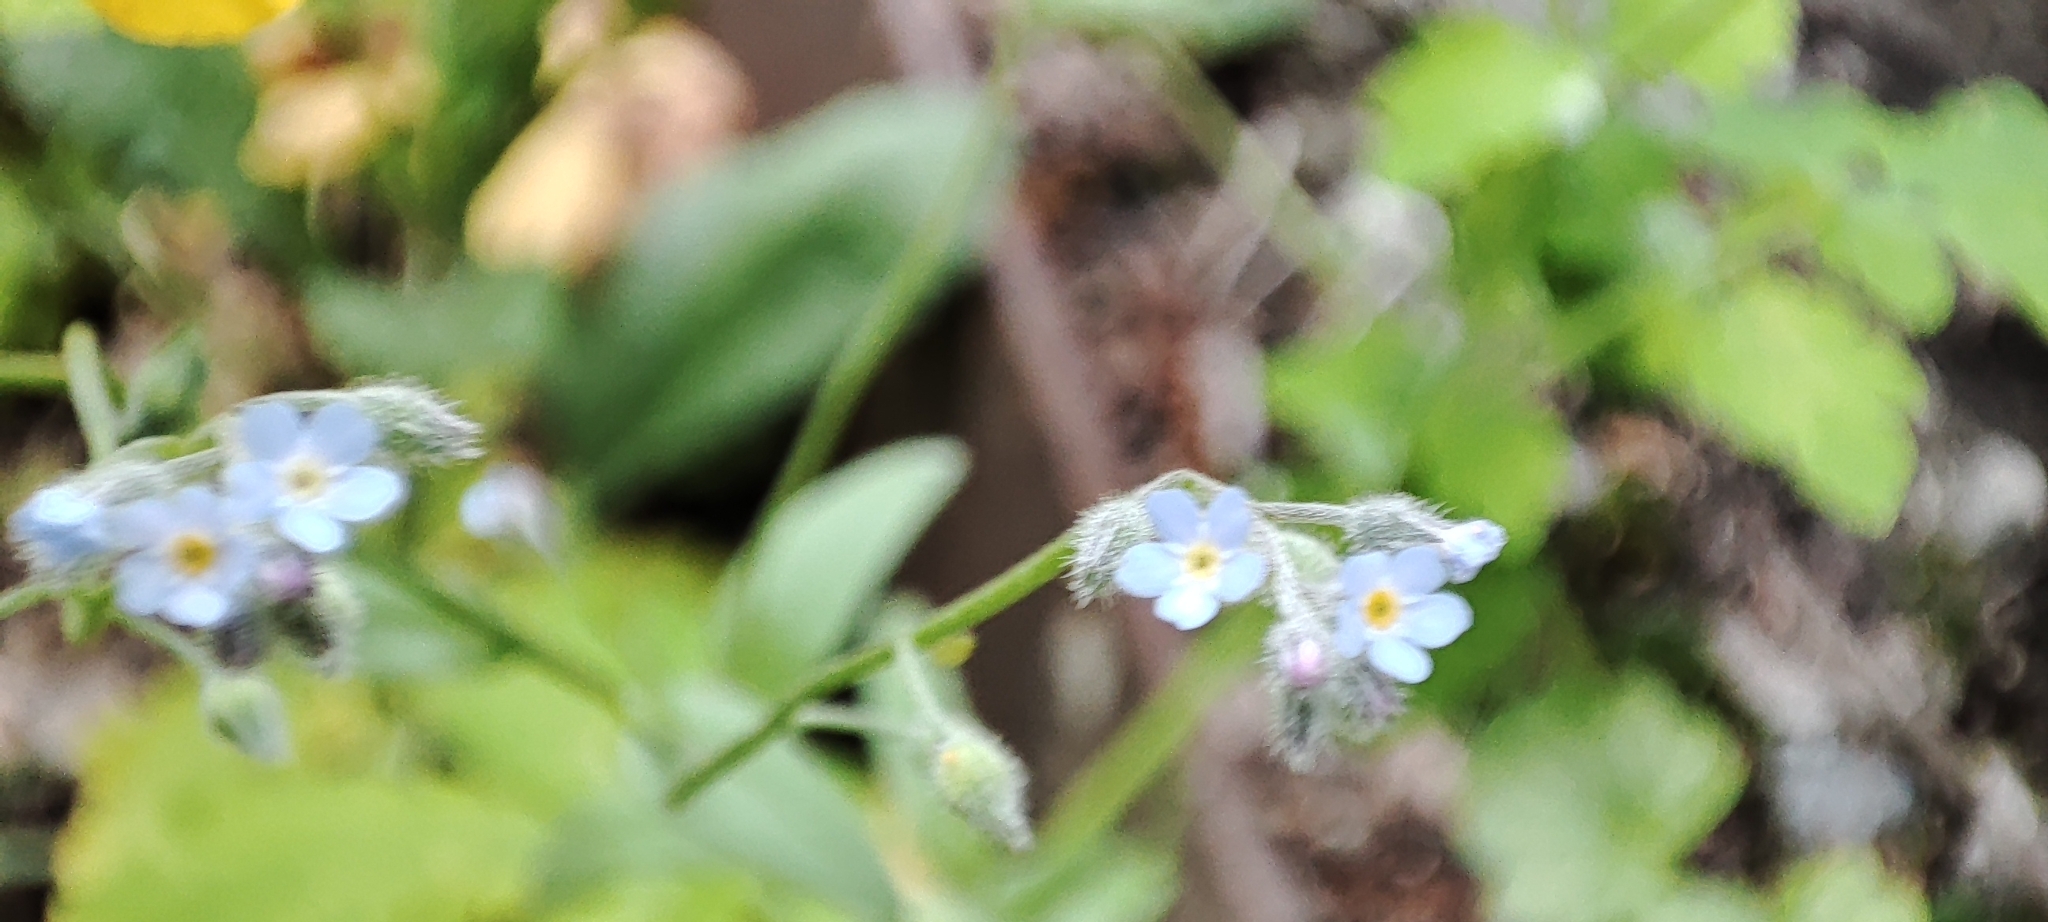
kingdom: Plantae
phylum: Tracheophyta
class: Magnoliopsida
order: Boraginales
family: Boraginaceae
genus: Myosotis
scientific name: Myosotis arvensis
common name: Field forget-me-not
